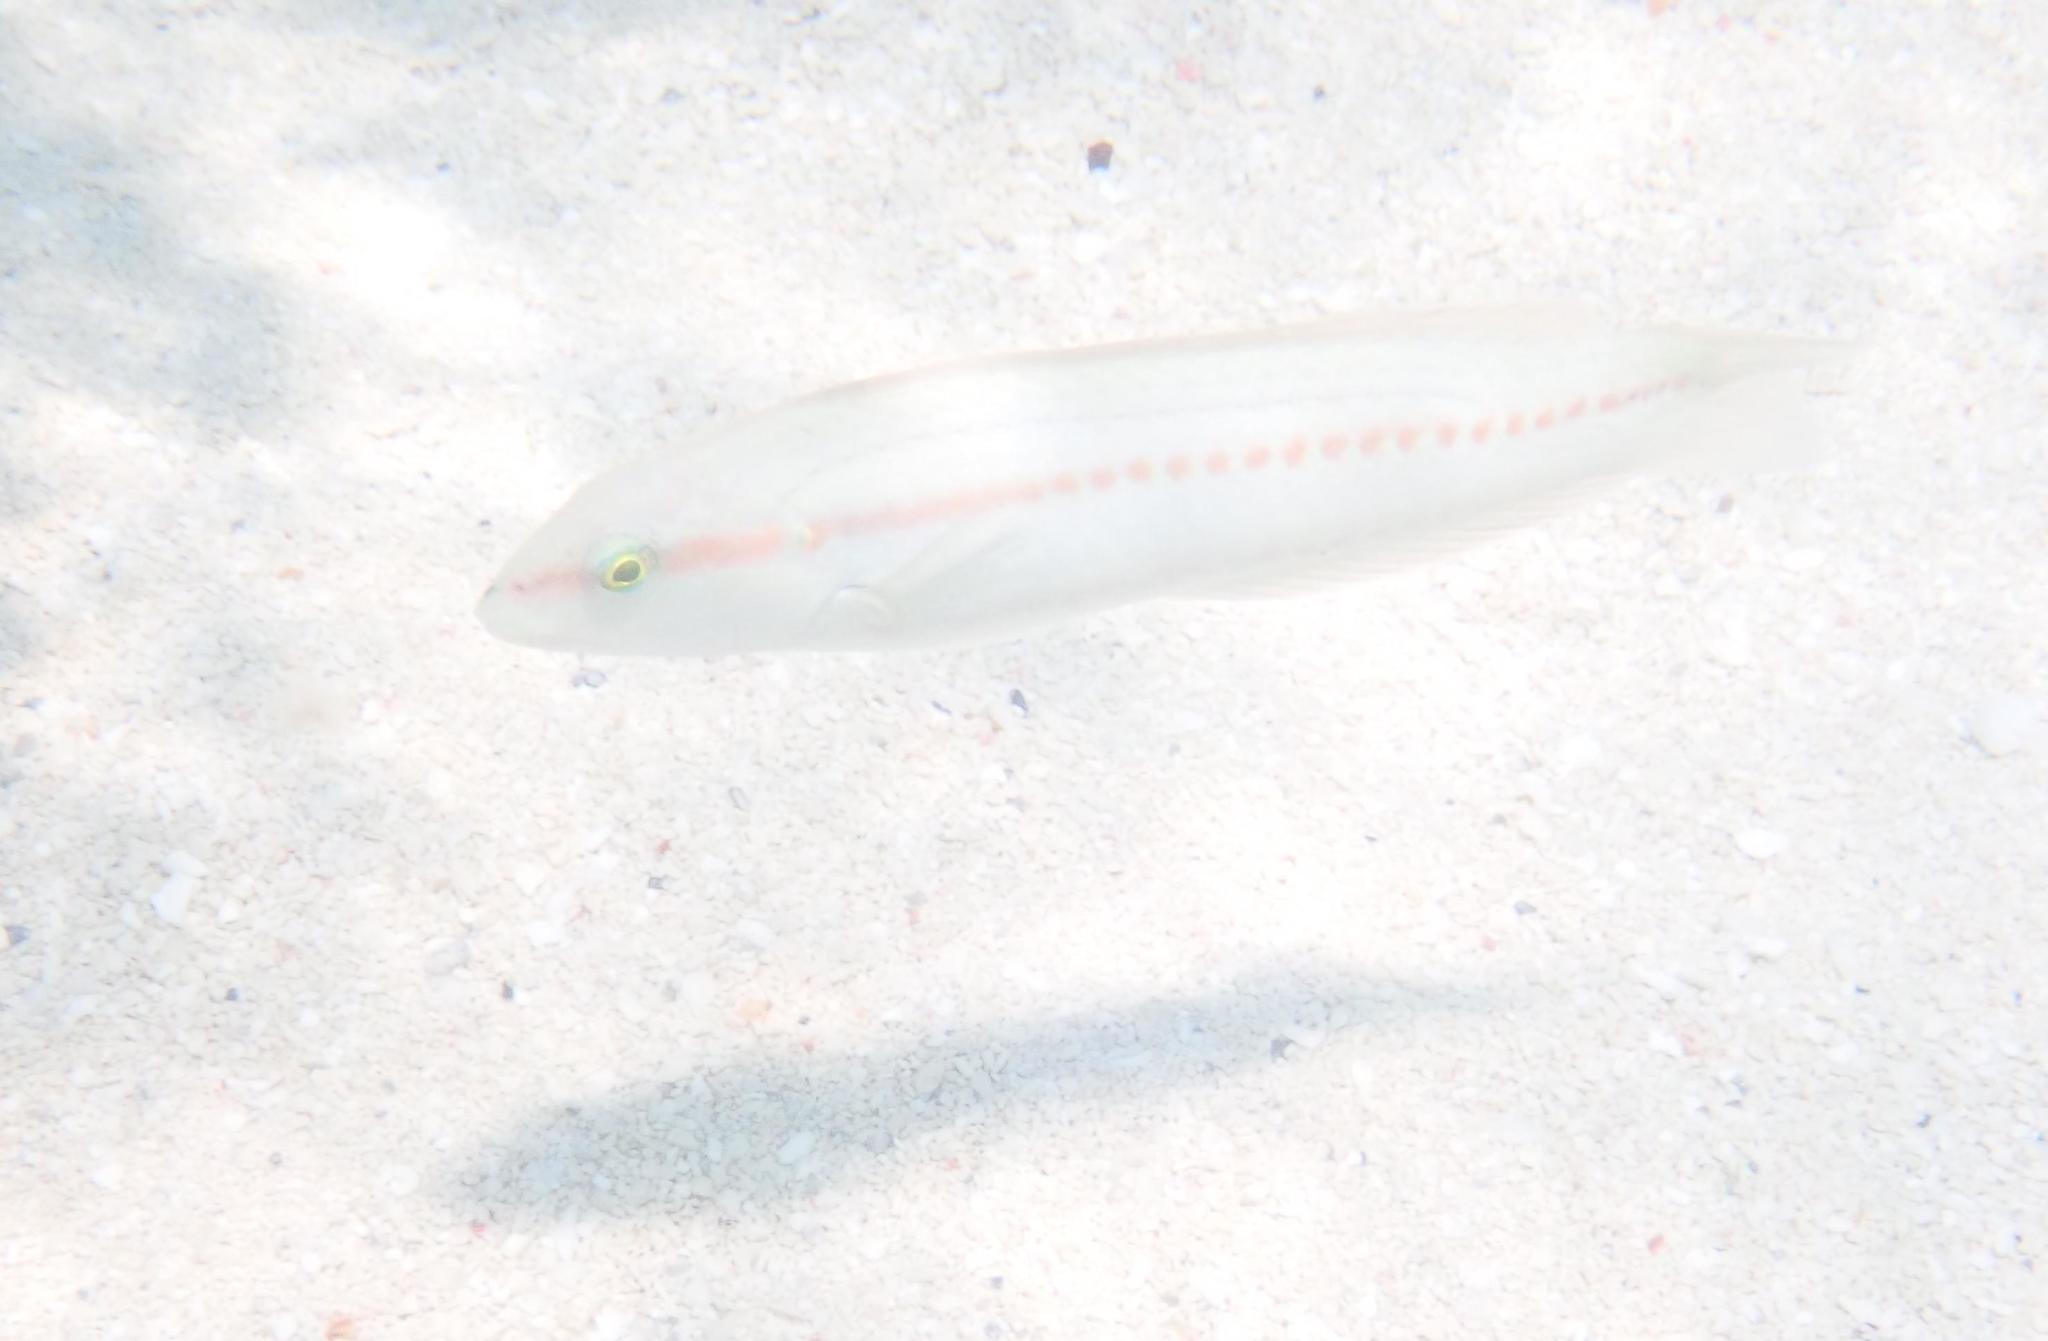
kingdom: Animalia
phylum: Chordata
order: Perciformes
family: Labridae
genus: Halichoeres
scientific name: Halichoeres bivittatus
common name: Slippery dick
